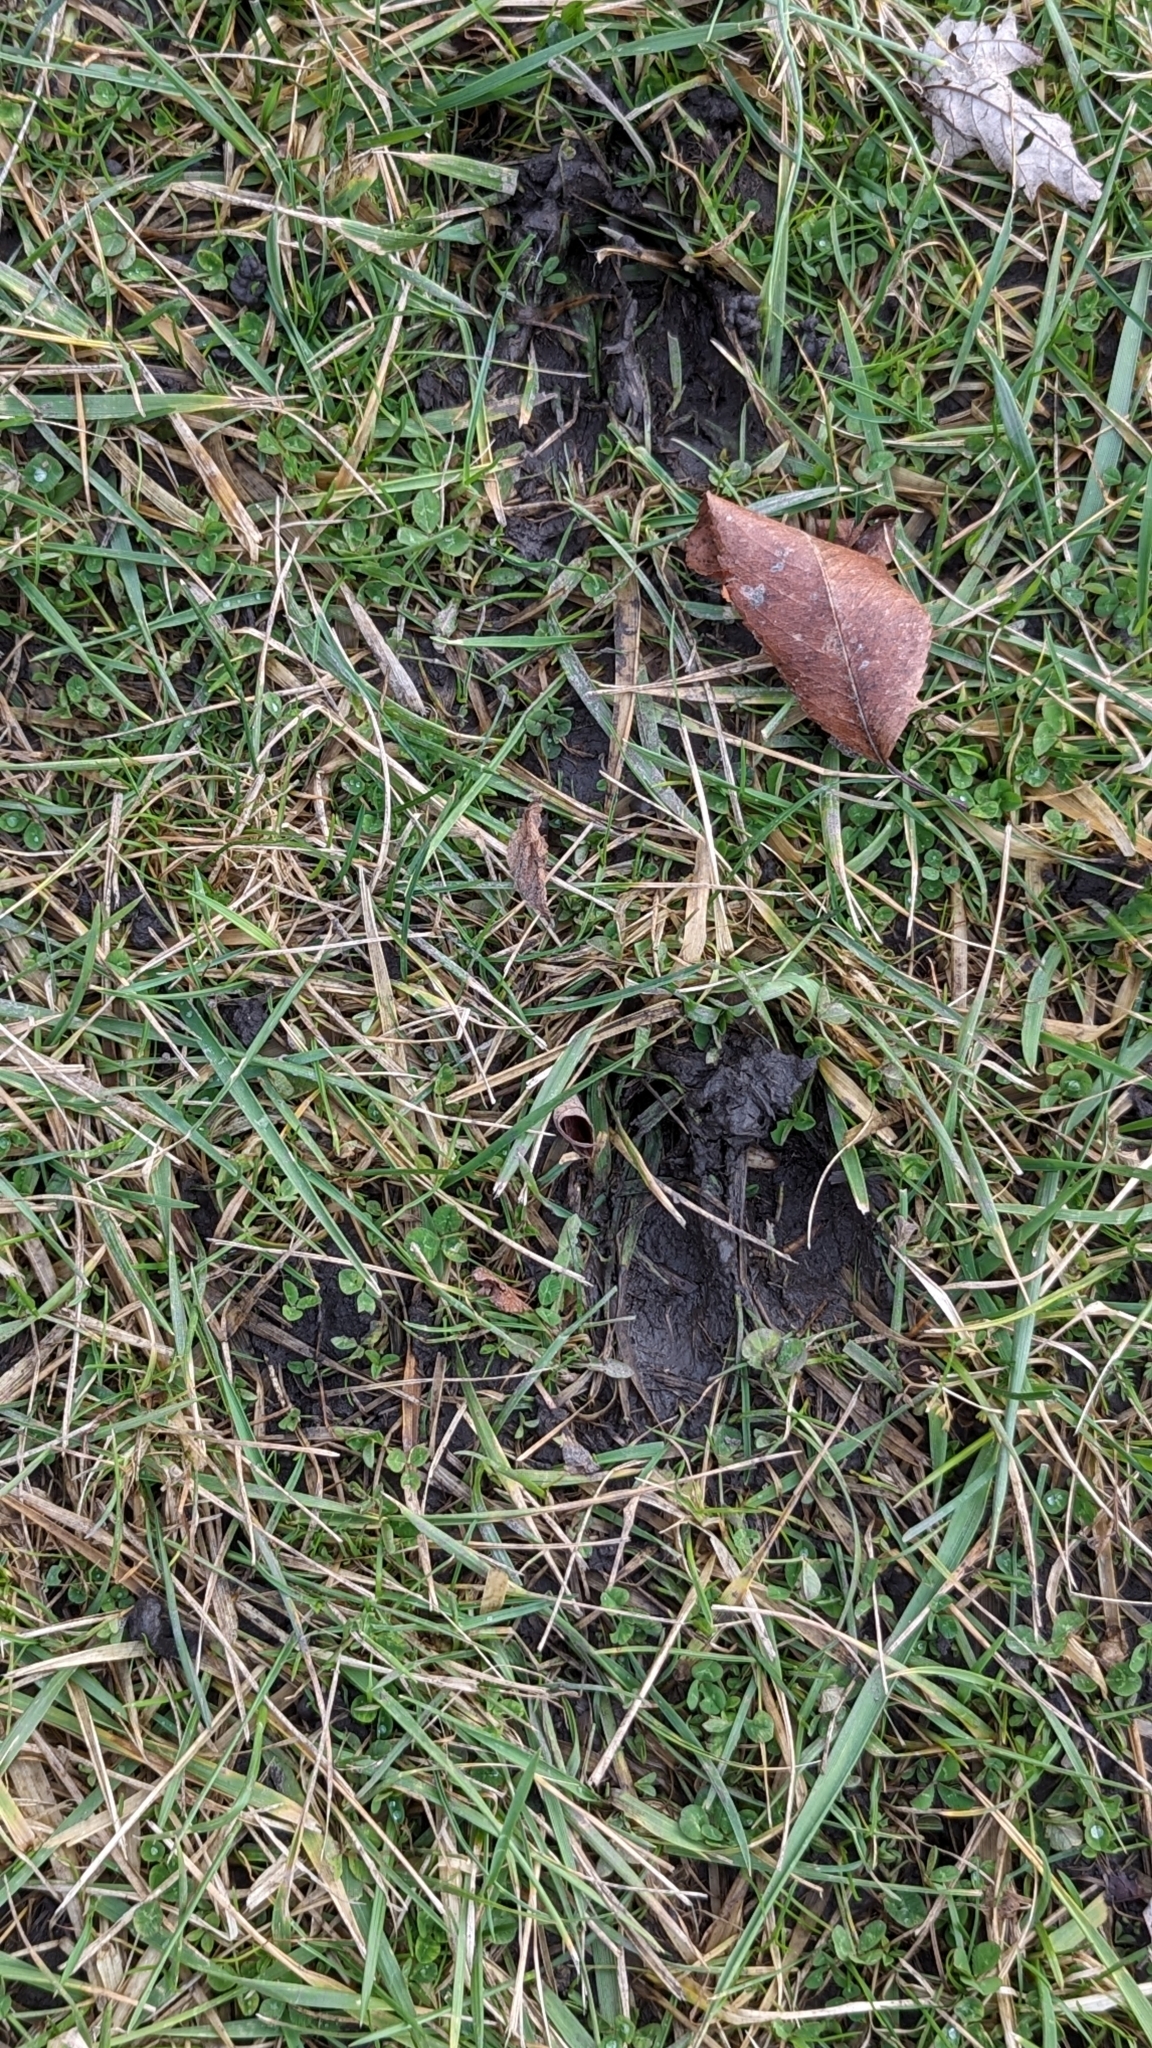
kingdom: Animalia
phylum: Chordata
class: Mammalia
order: Artiodactyla
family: Cervidae
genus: Odocoileus
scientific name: Odocoileus virginianus
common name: White-tailed deer
